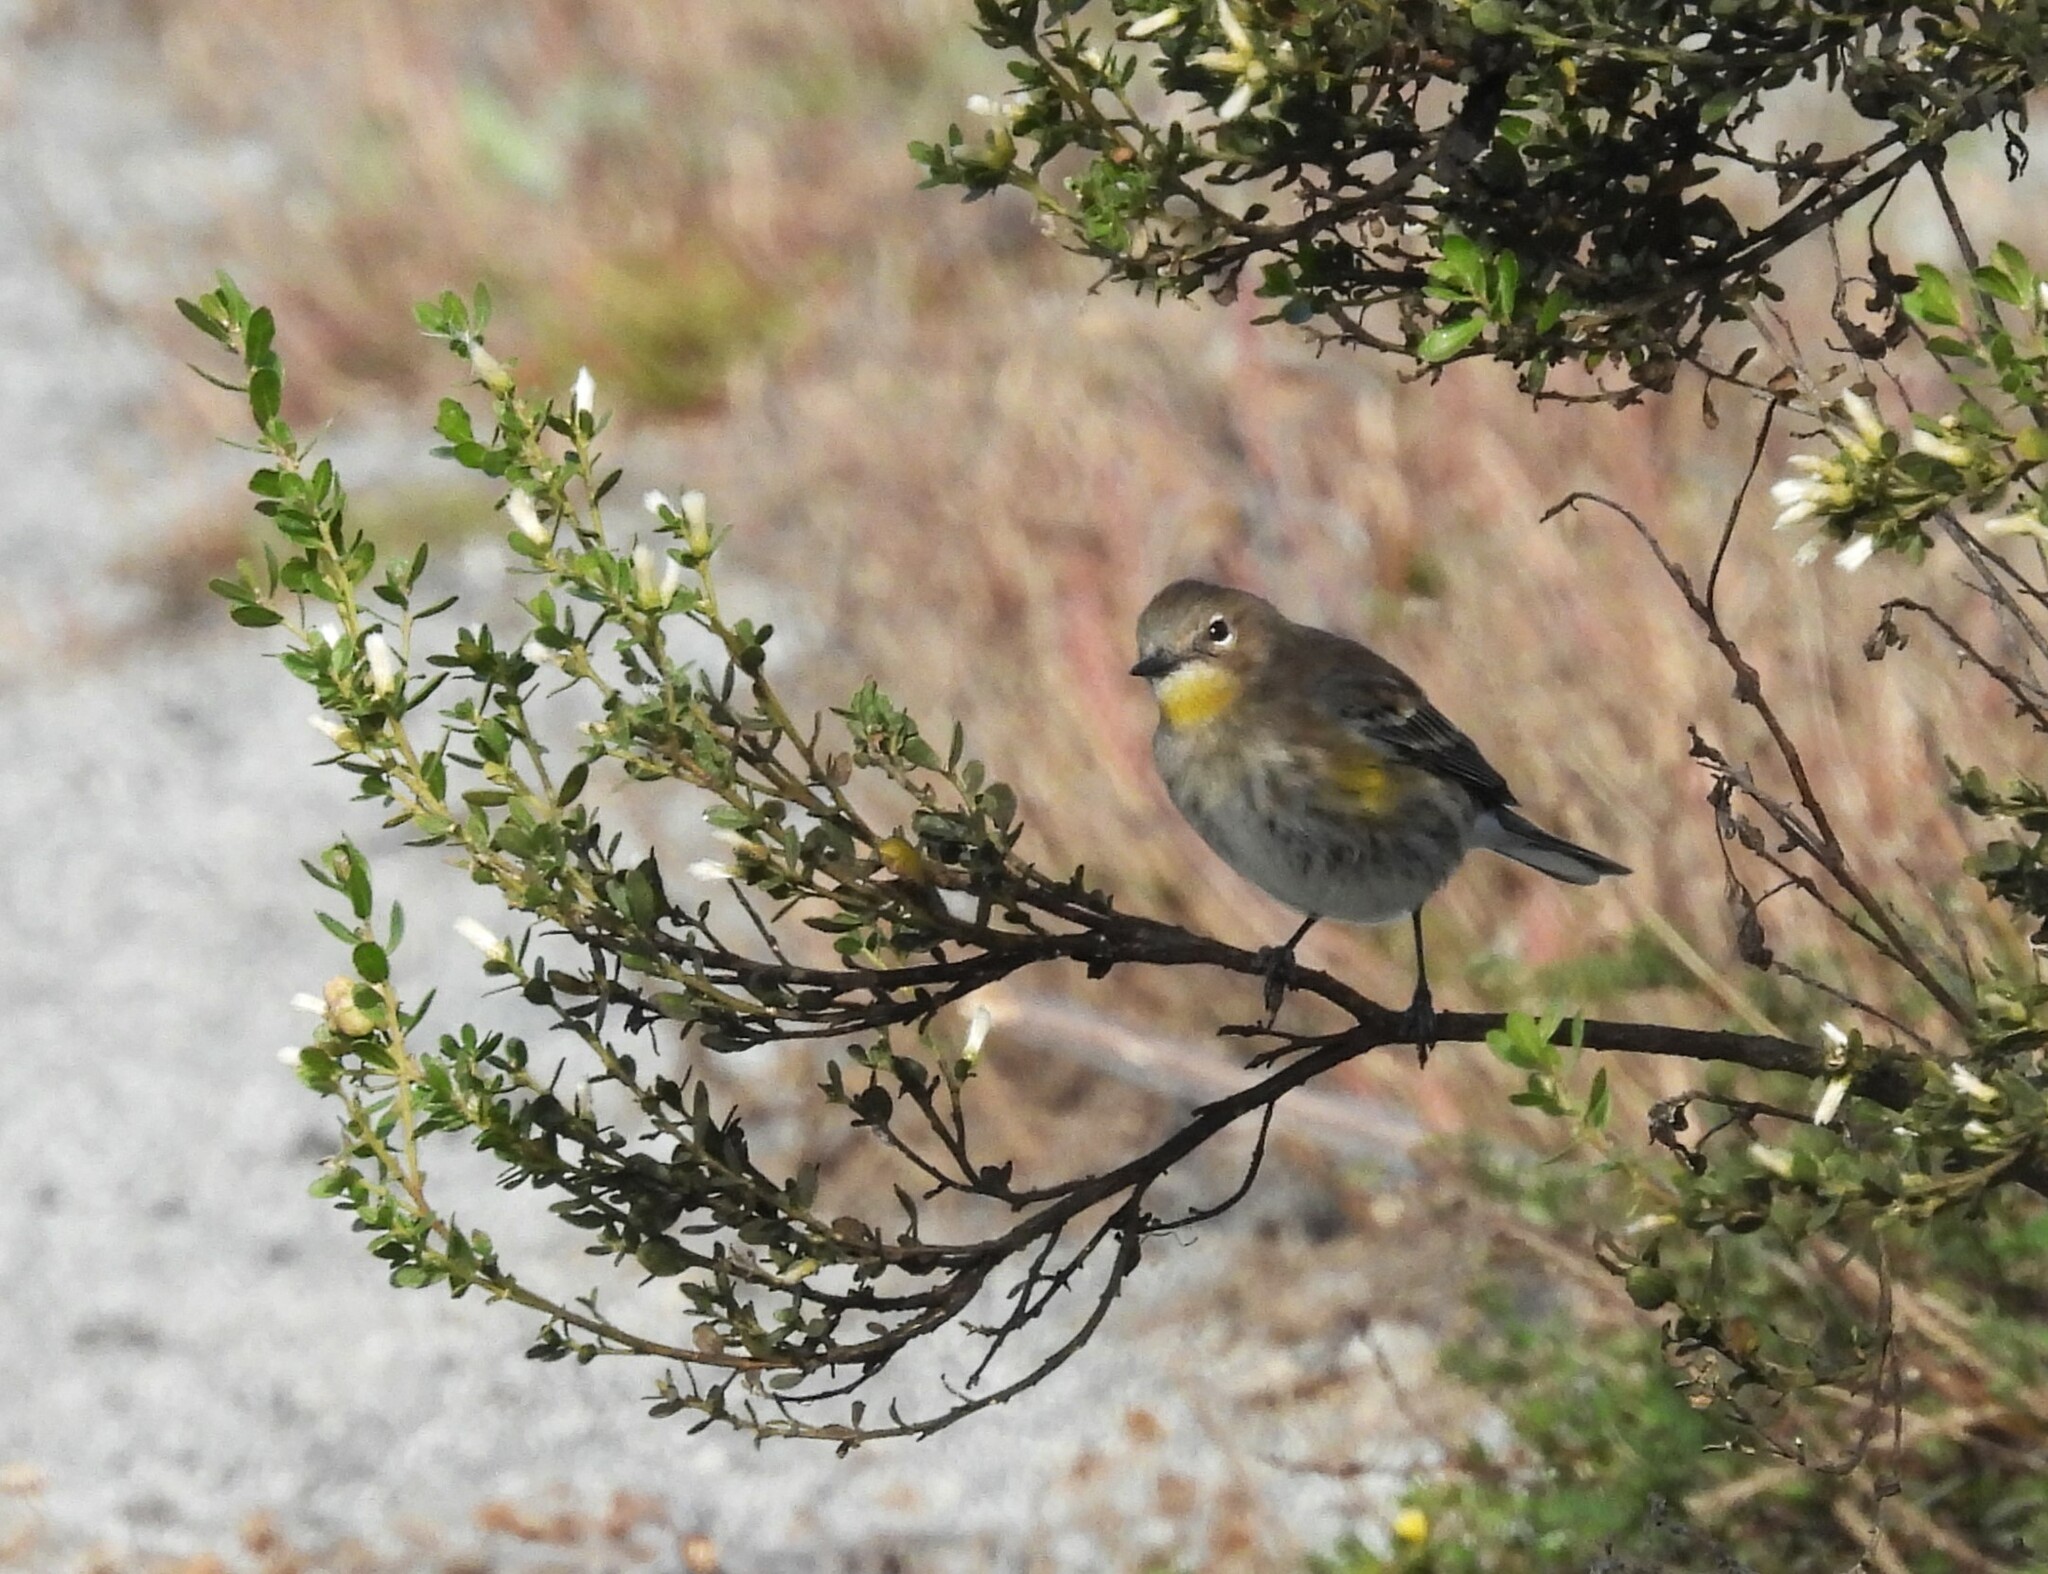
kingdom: Animalia
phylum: Chordata
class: Aves
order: Passeriformes
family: Parulidae
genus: Setophaga
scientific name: Setophaga coronata
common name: Myrtle warbler
